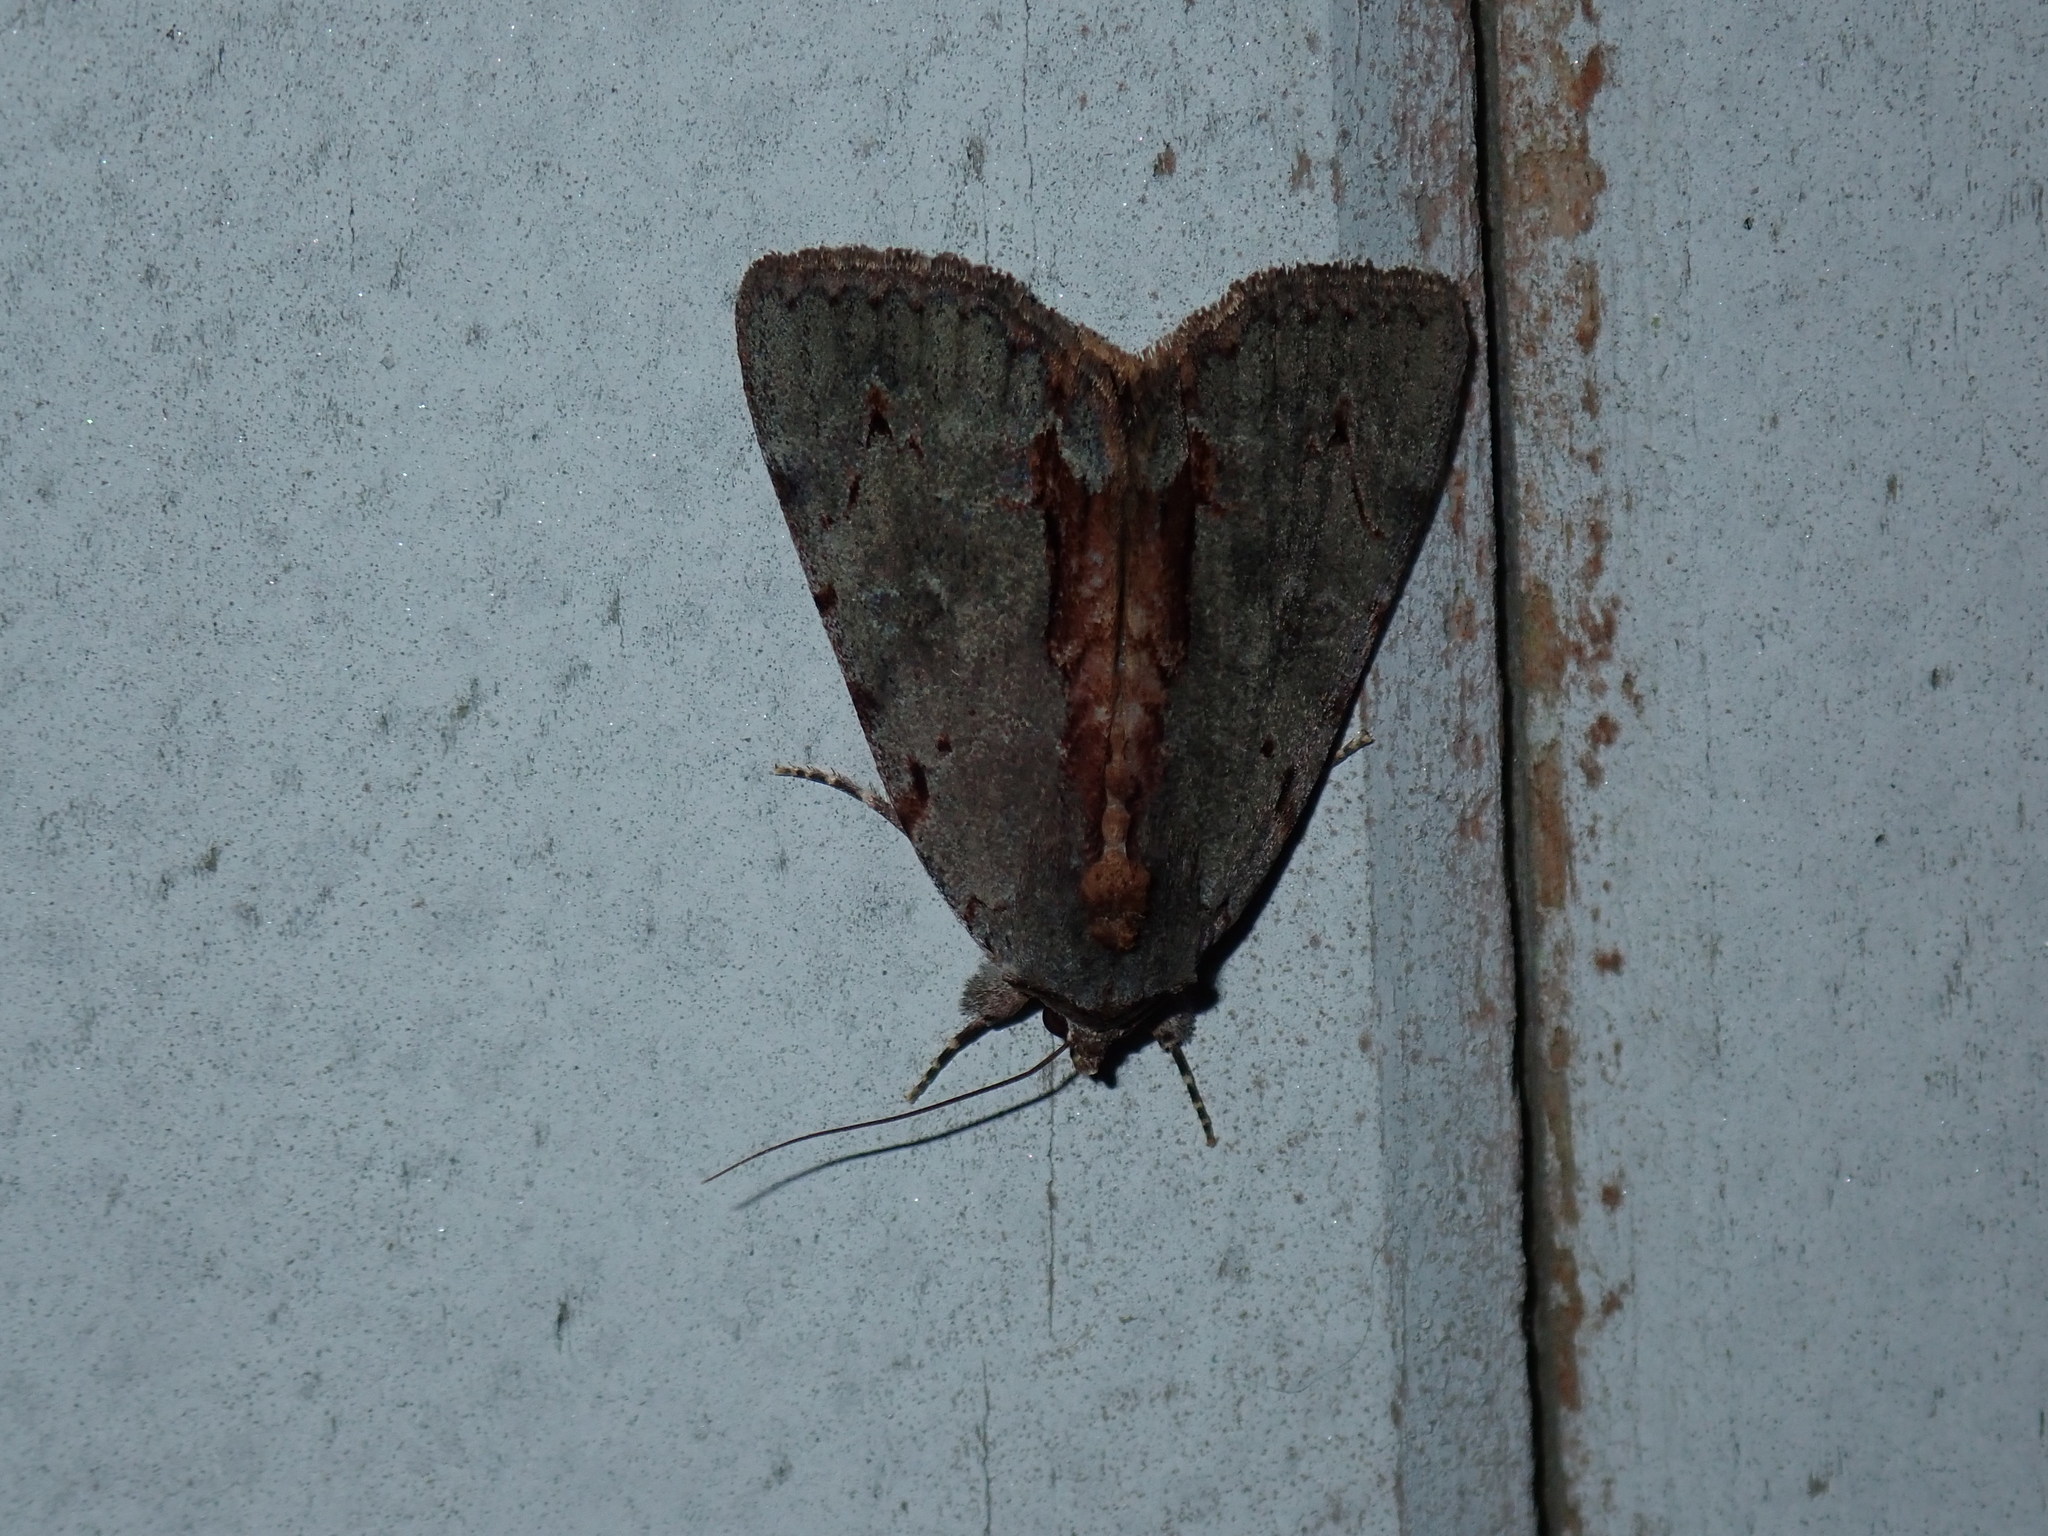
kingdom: Animalia
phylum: Arthropoda
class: Insecta
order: Lepidoptera
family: Erebidae
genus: Catocala
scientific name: Catocala grynea
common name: Woody underwing
